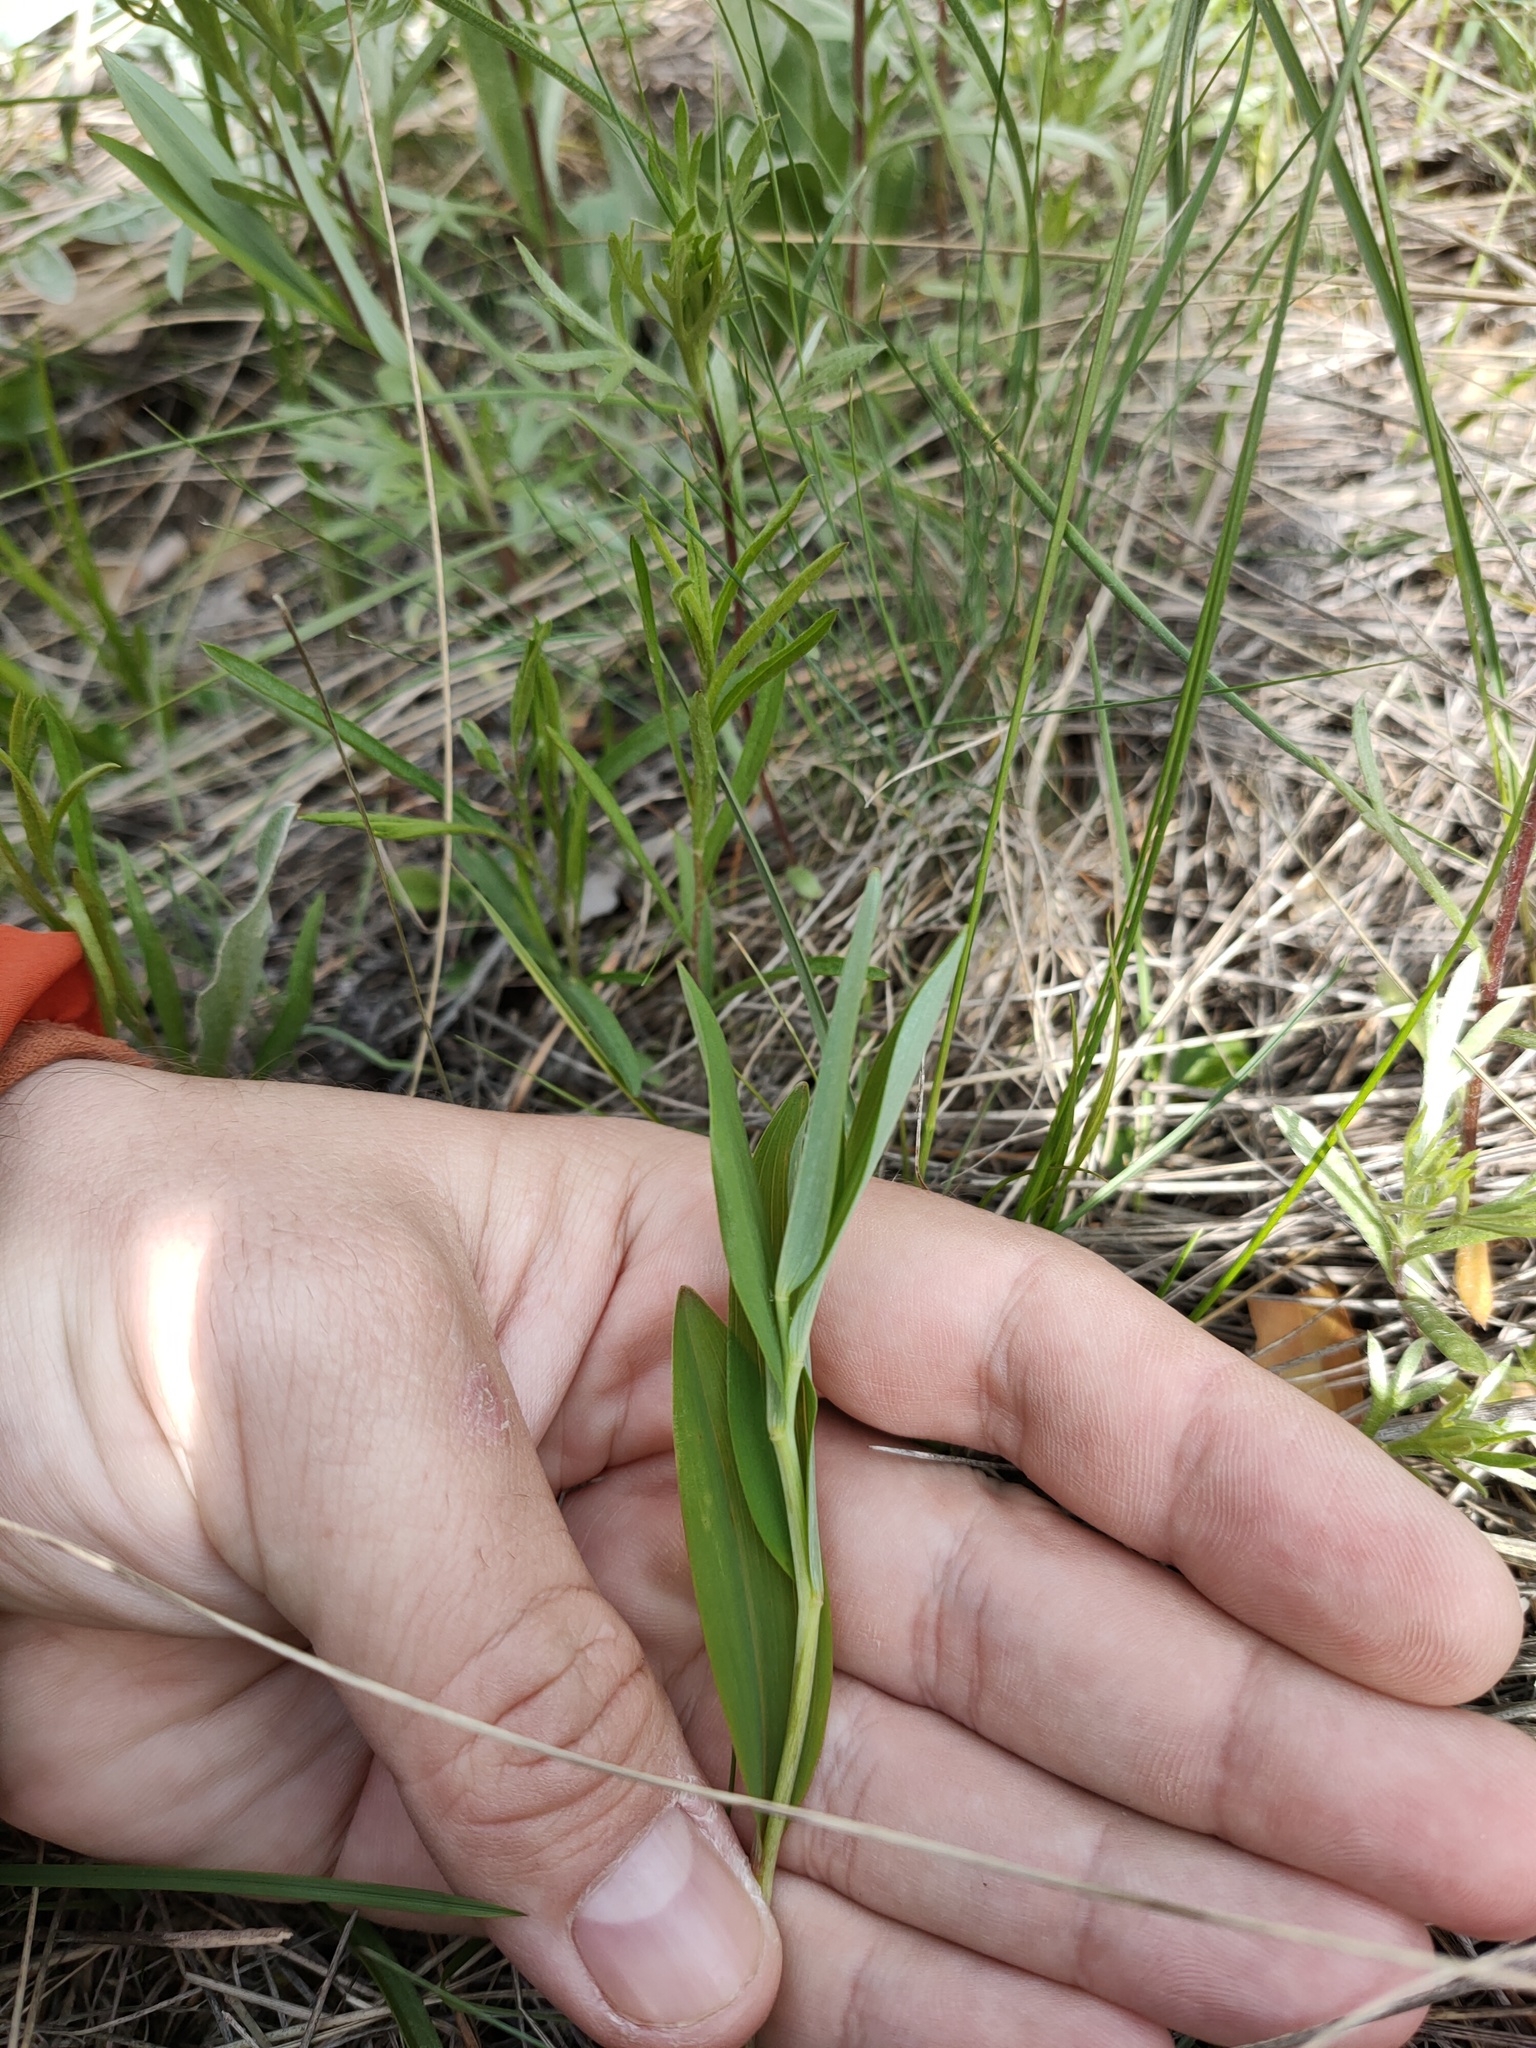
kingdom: Plantae
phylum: Tracheophyta
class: Liliopsida
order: Asparagales
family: Asparagaceae
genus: Polygonatum
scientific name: Polygonatum odoratum
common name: Angular solomon's-seal
